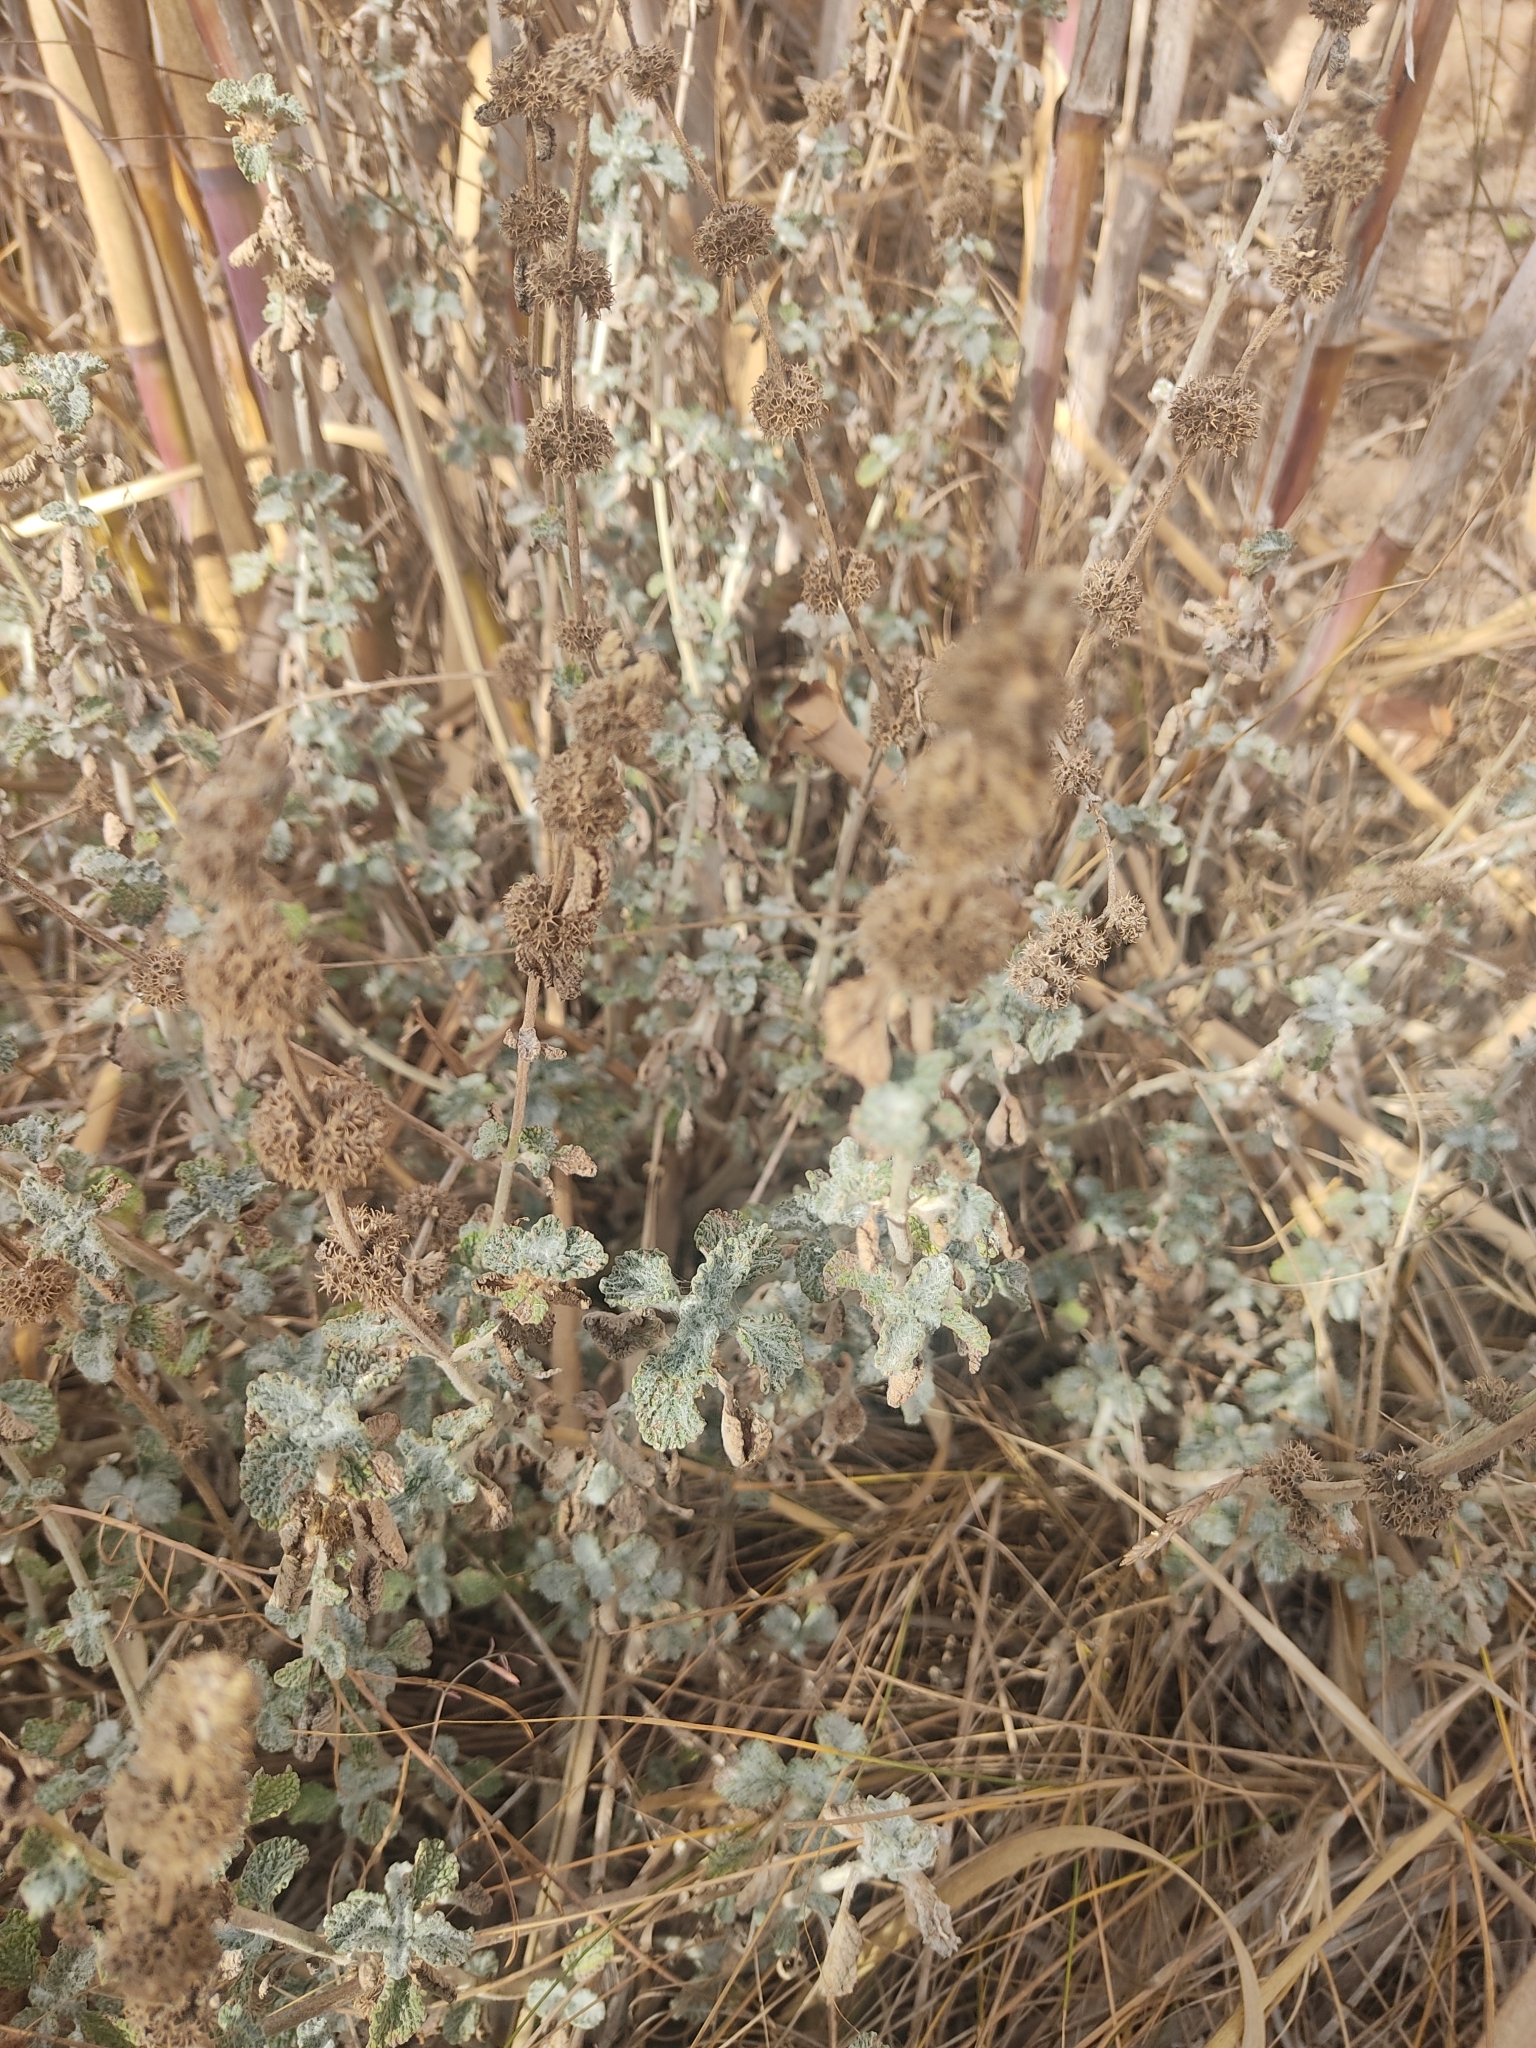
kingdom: Plantae
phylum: Tracheophyta
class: Magnoliopsida
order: Lamiales
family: Lamiaceae
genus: Marrubium
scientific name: Marrubium vulgare
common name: Horehound
